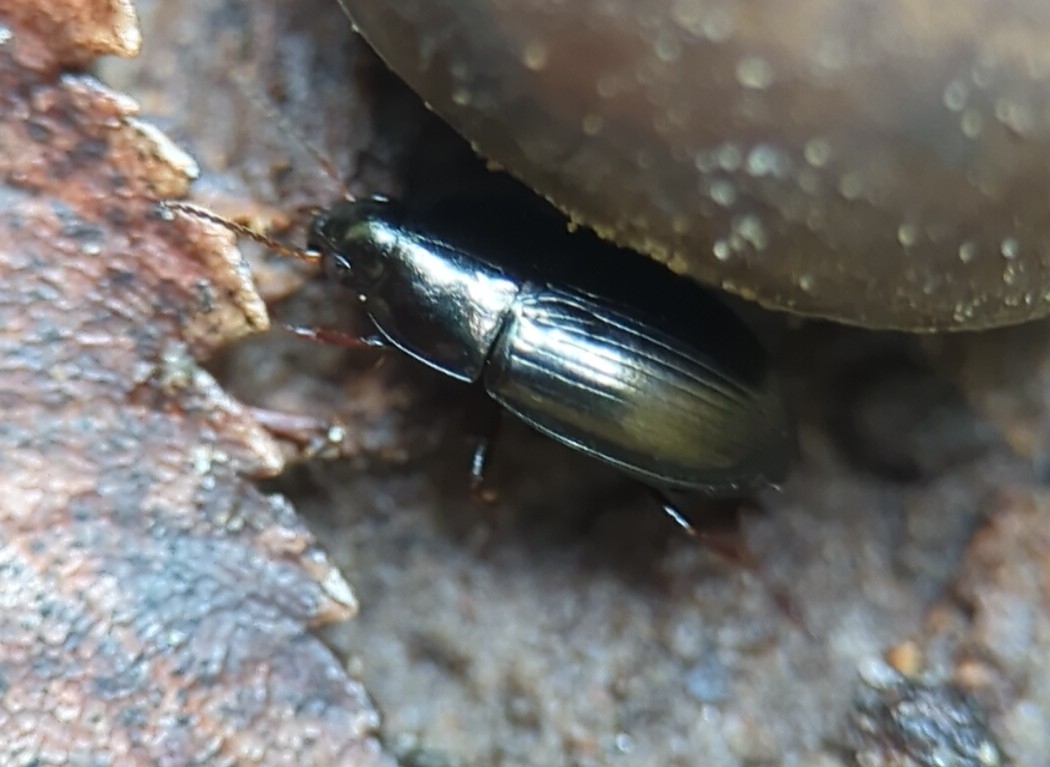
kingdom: Animalia
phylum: Arthropoda
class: Insecta
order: Coleoptera
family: Carabidae
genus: Amara
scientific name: Amara aenea
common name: Common sun beetle
